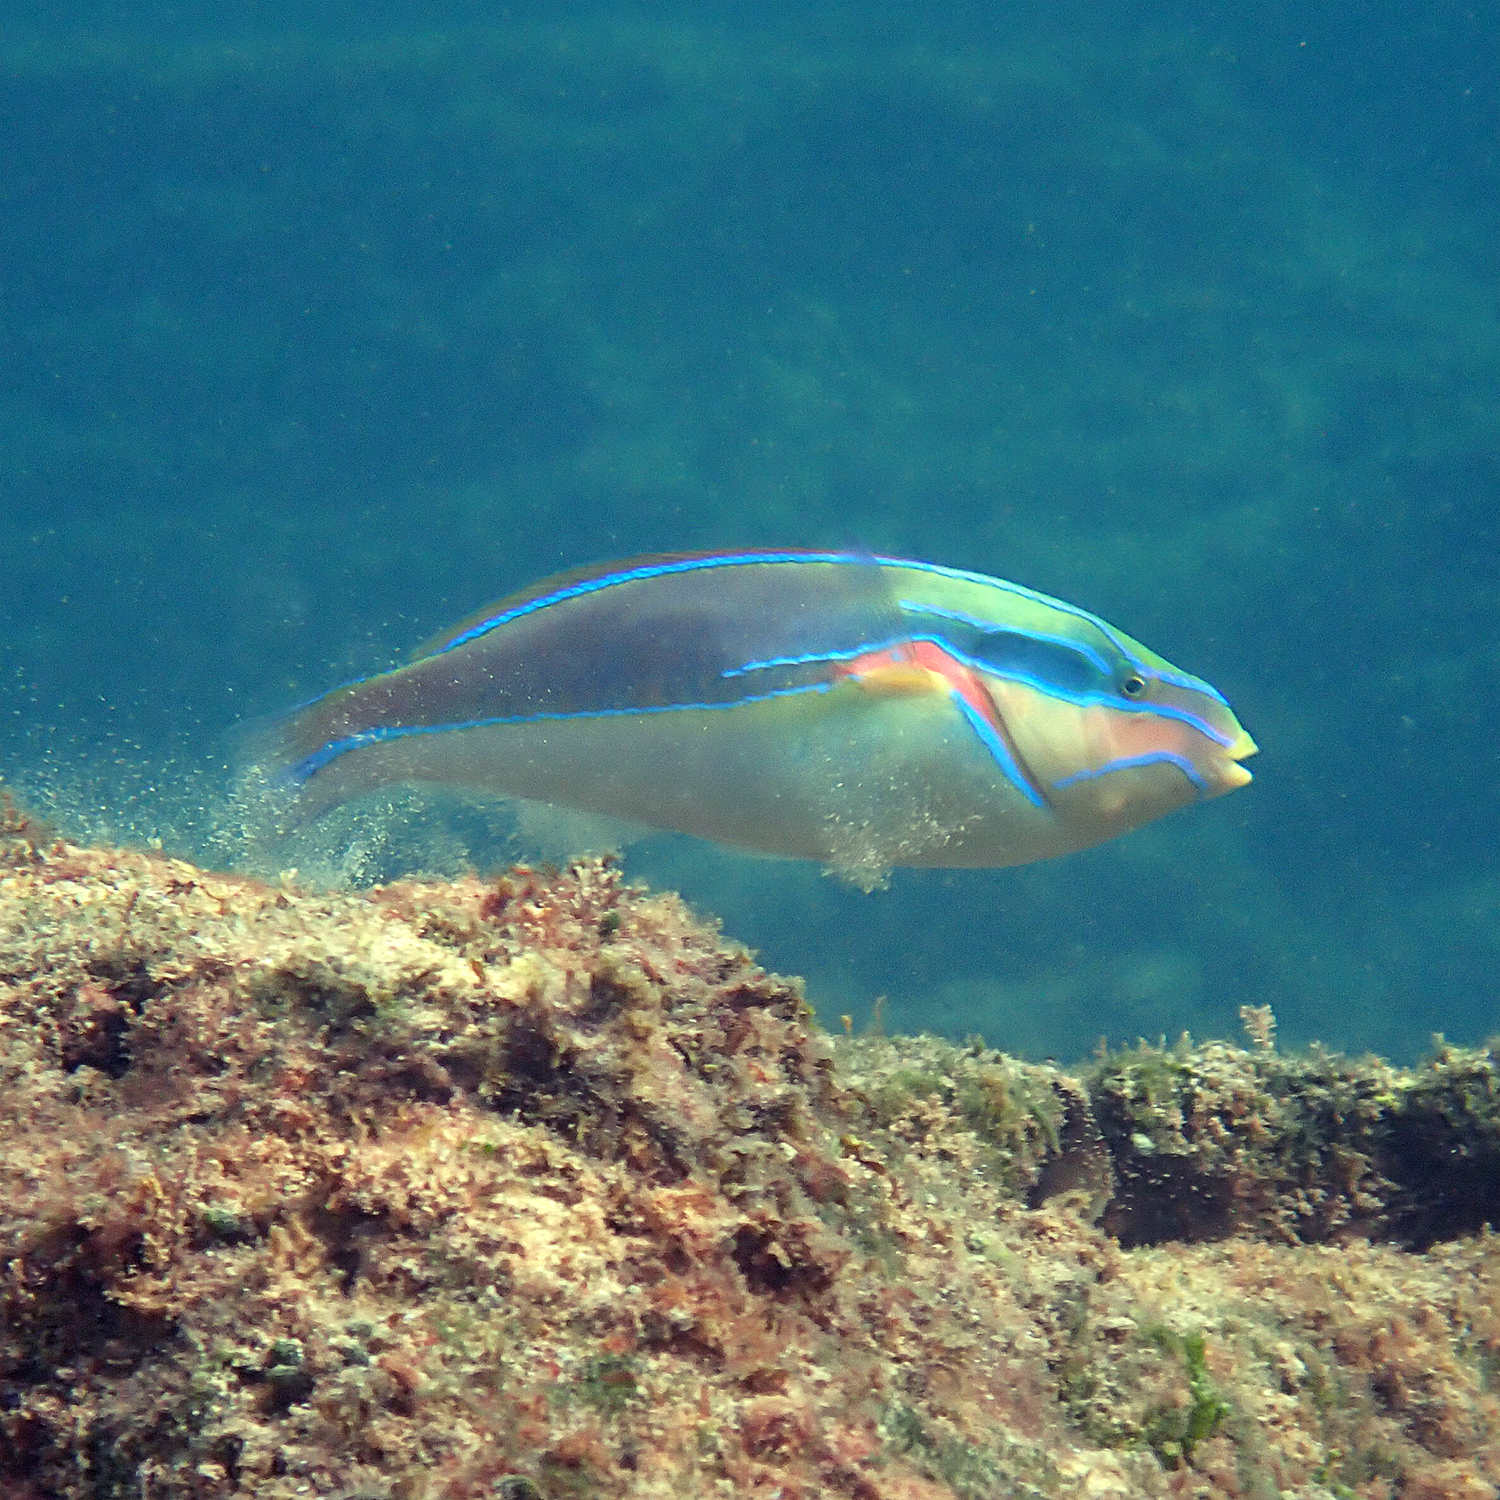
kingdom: Animalia
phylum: Chordata
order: Perciformes
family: Labridae
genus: Stethojulis
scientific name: Stethojulis bandanensis
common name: Red shoulder wrasse
